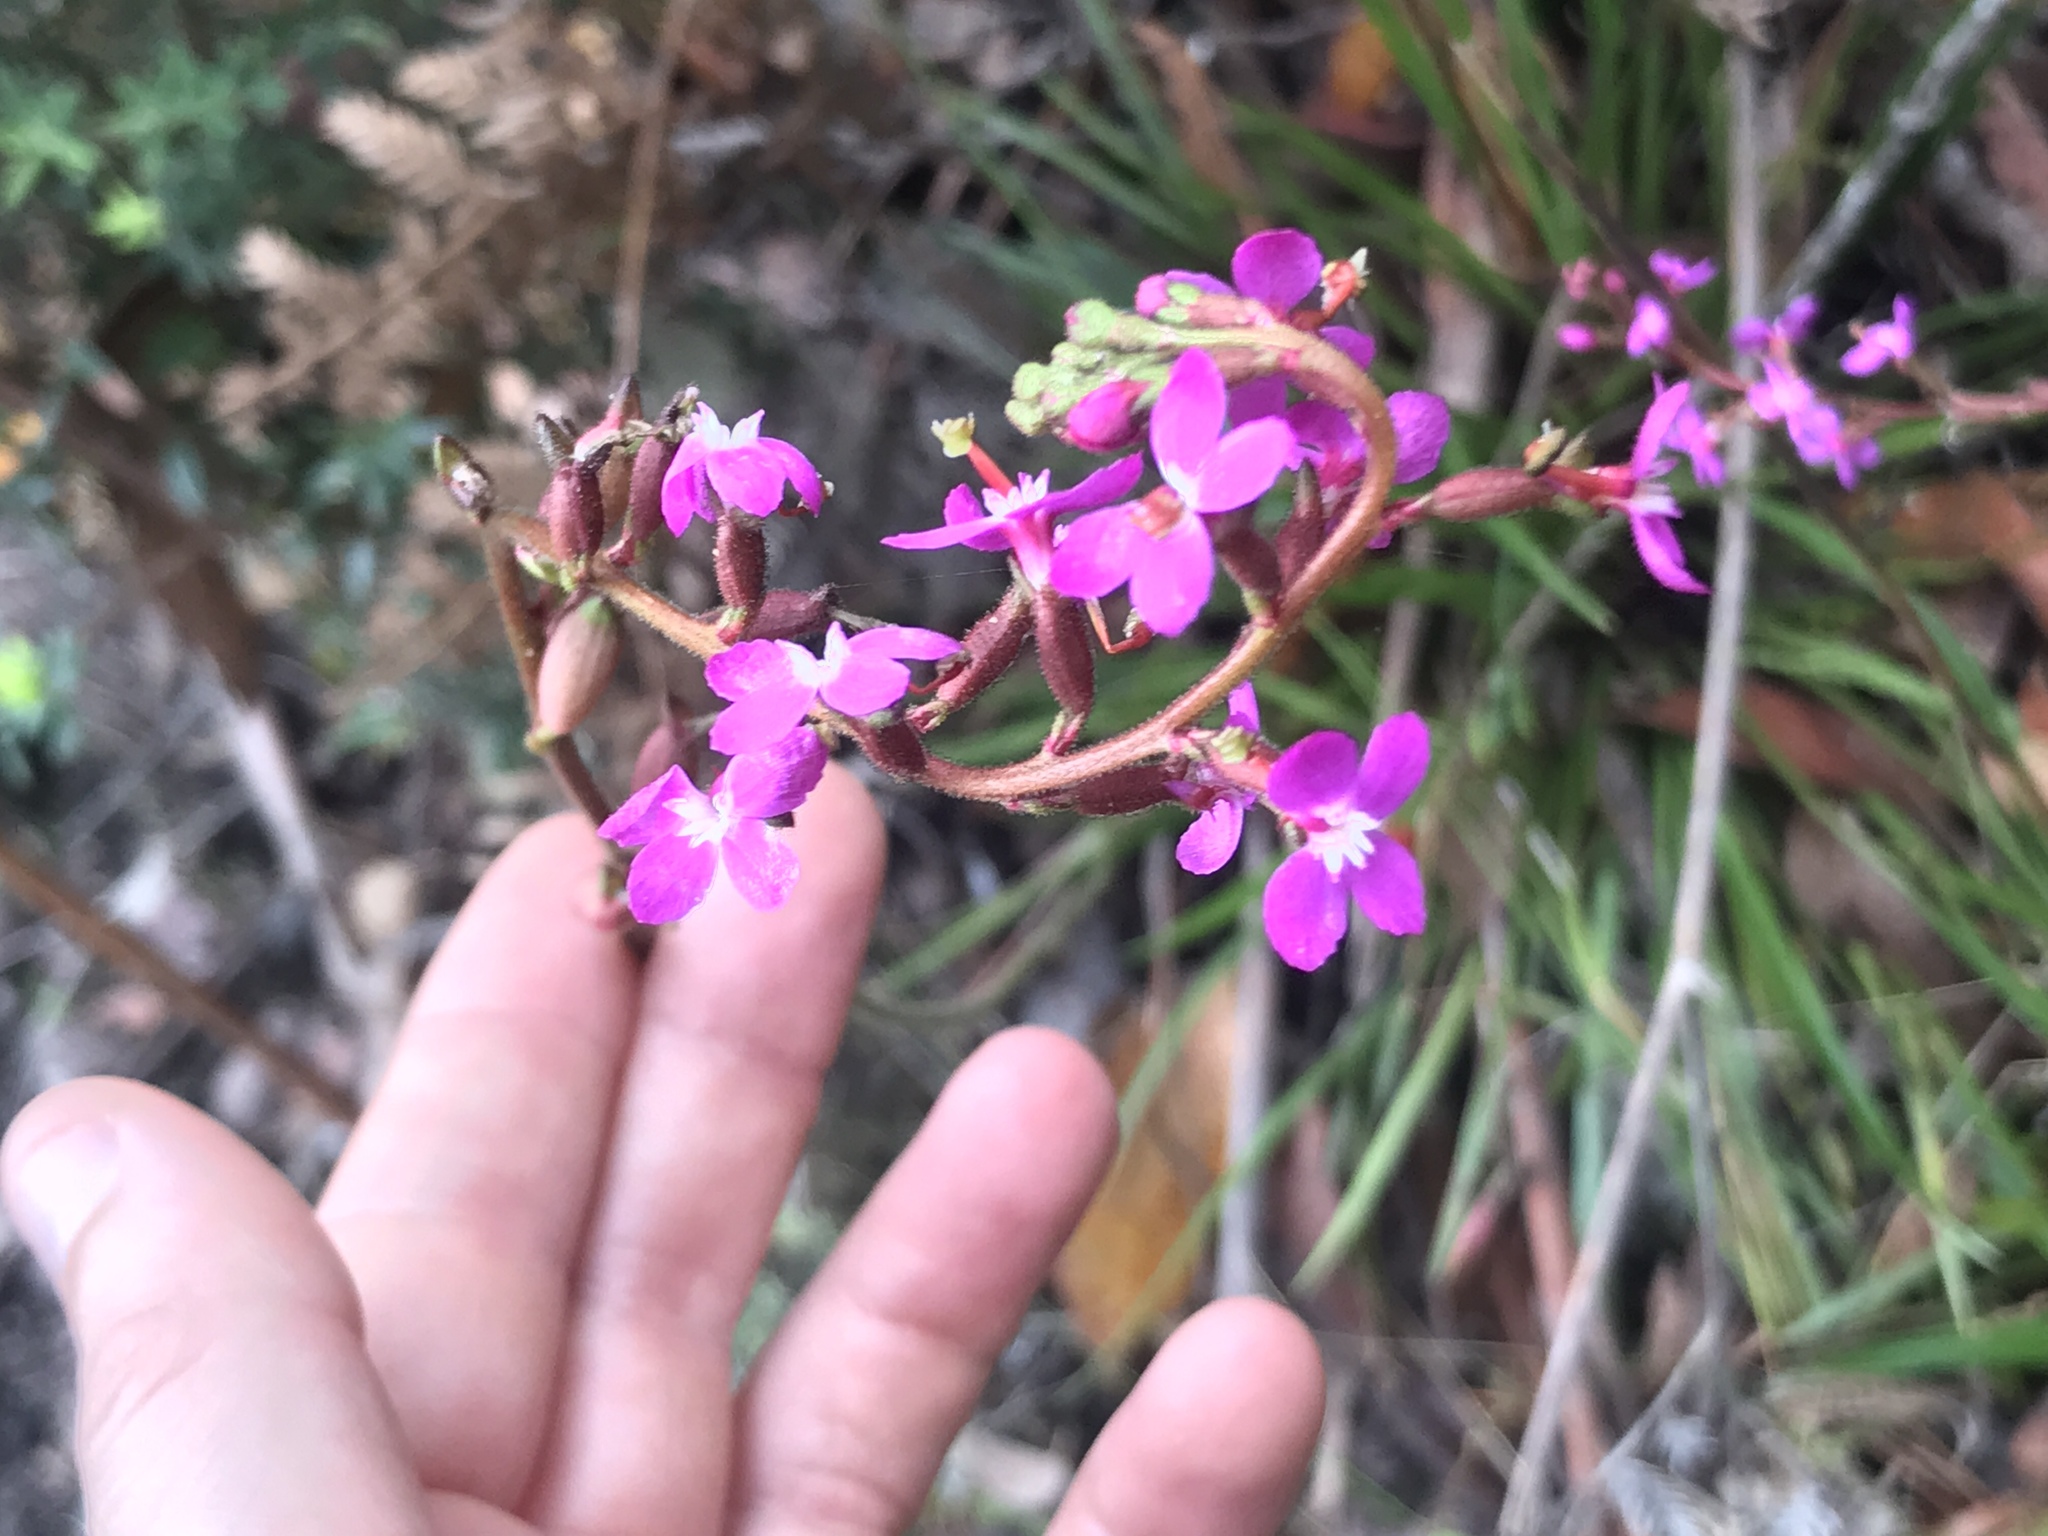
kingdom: Plantae
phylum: Tracheophyta
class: Magnoliopsida
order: Asterales
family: Stylidiaceae
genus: Stylidium
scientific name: Stylidium graminifolium
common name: Grass triggerplant
